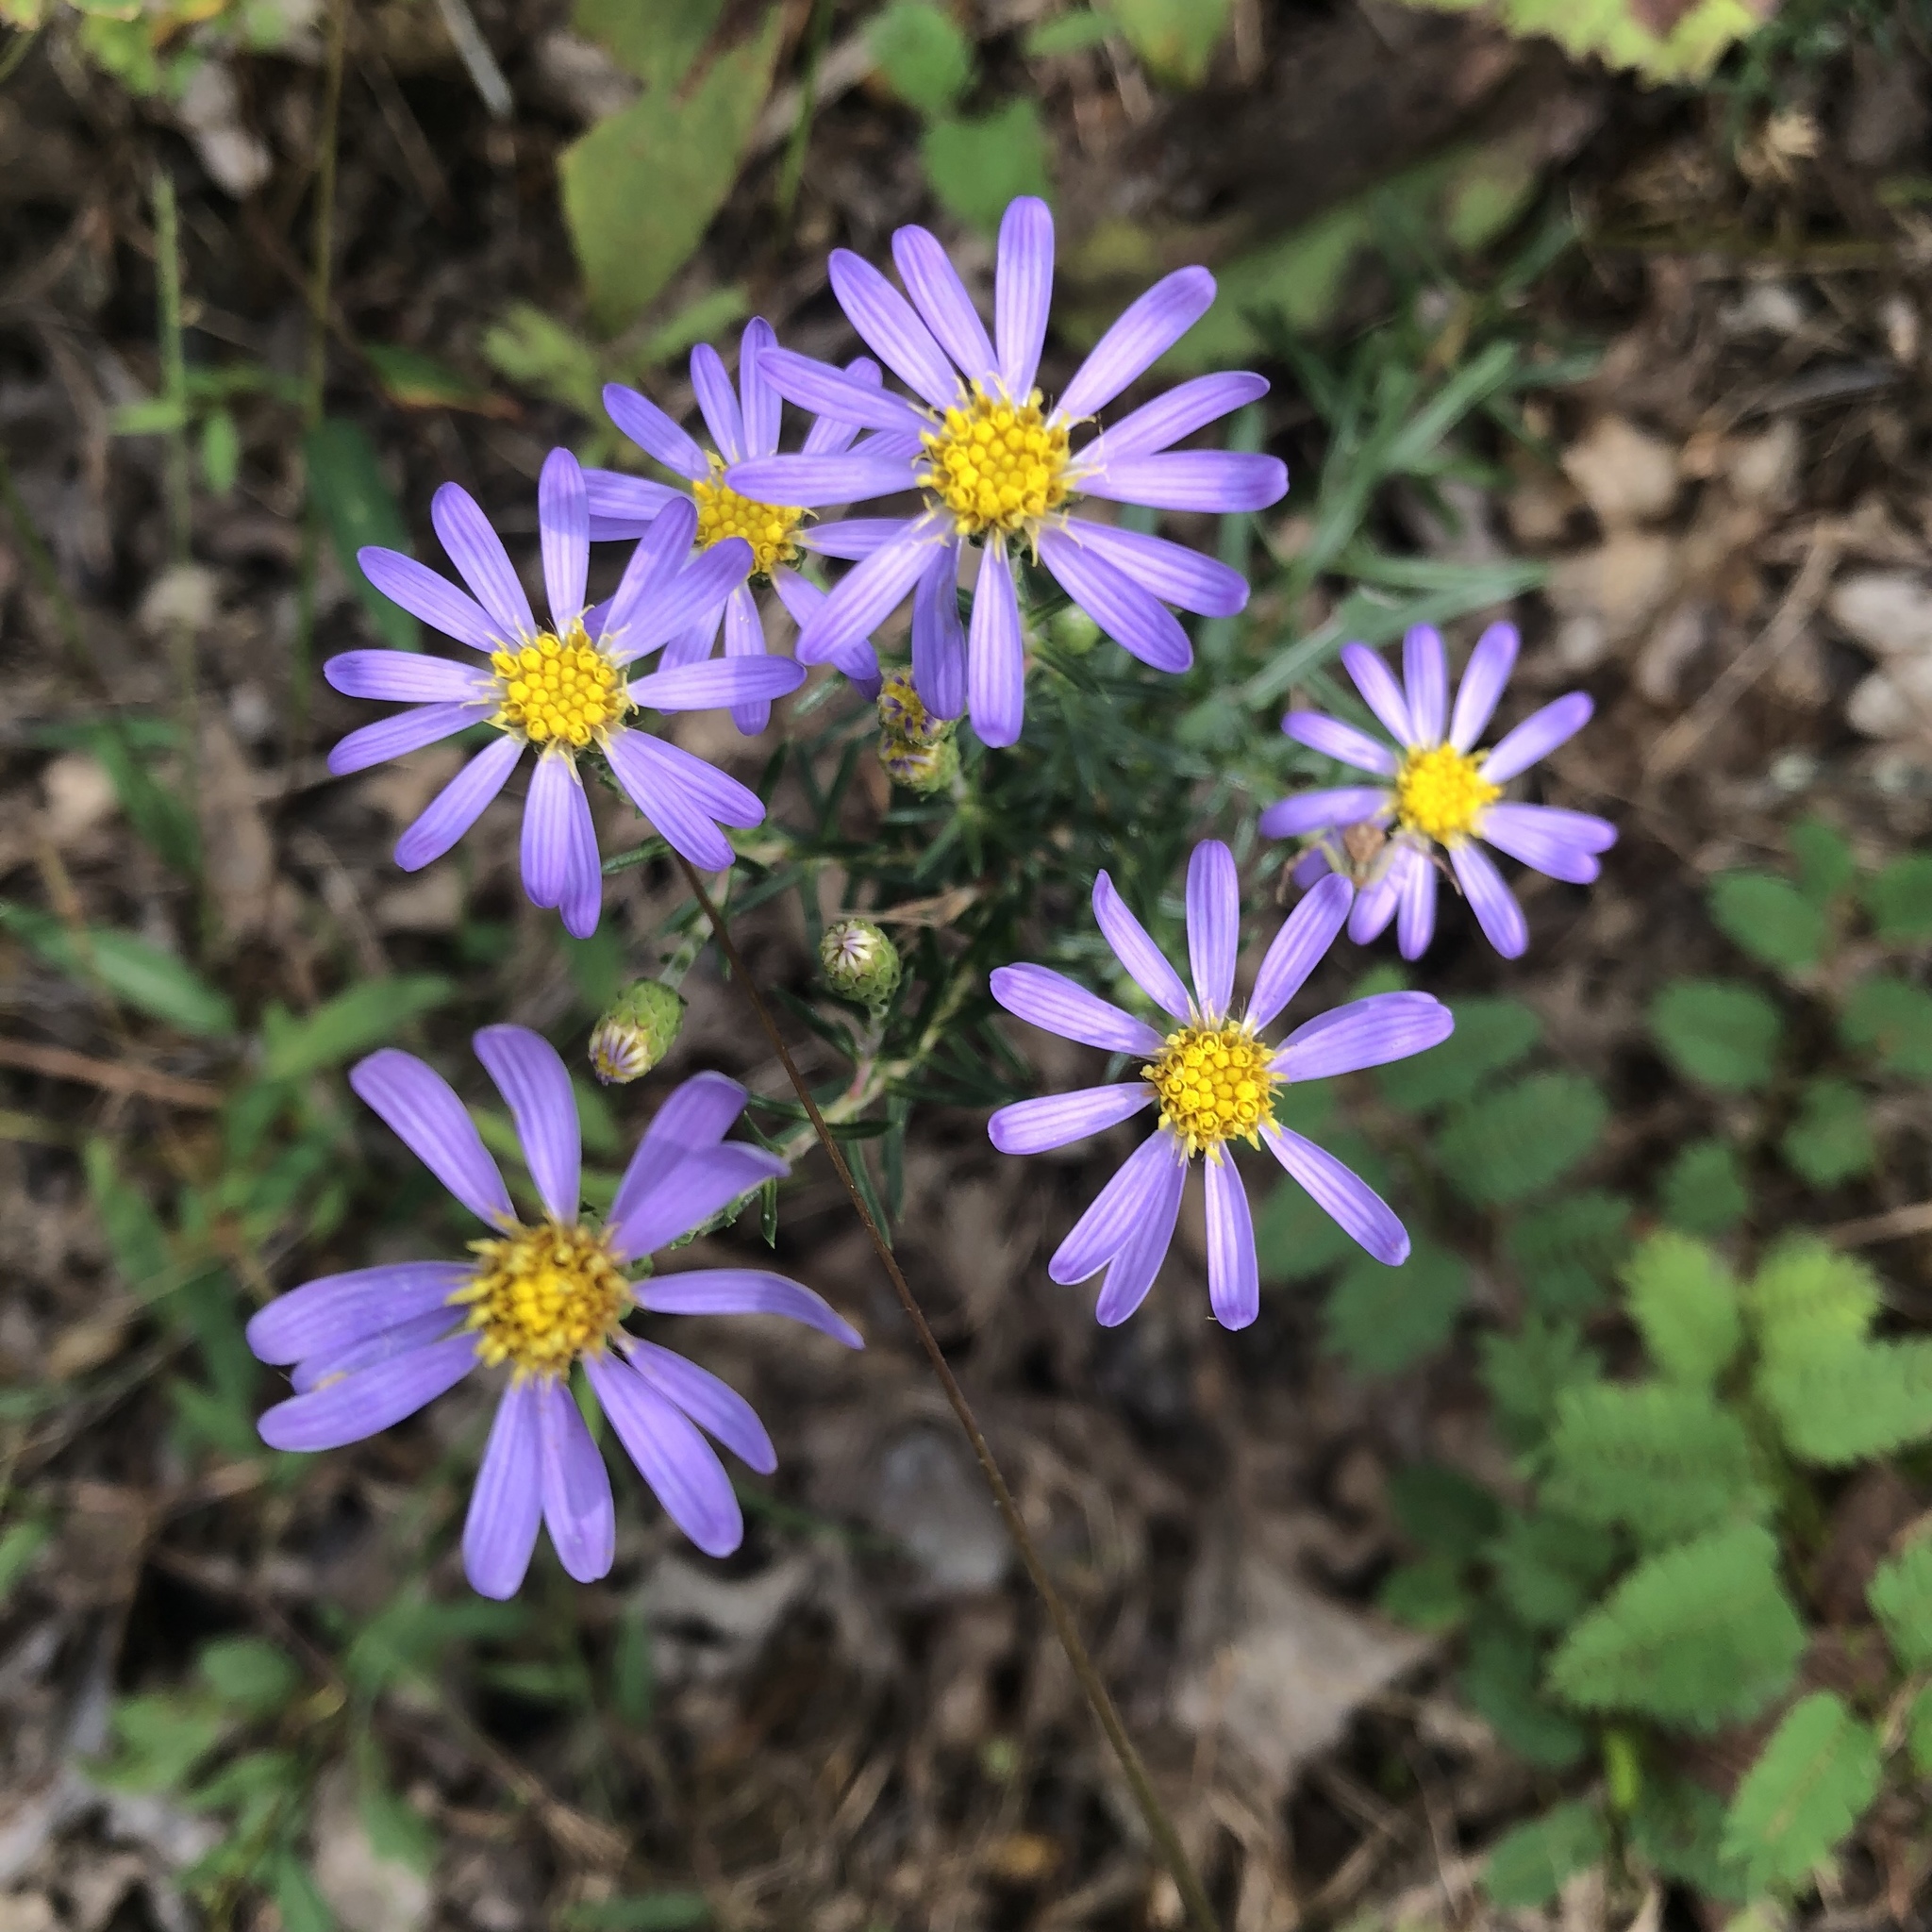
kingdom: Plantae
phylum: Tracheophyta
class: Magnoliopsida
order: Asterales
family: Asteraceae
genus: Ionactis
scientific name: Ionactis linariifolia
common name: Flax-leaf aster
